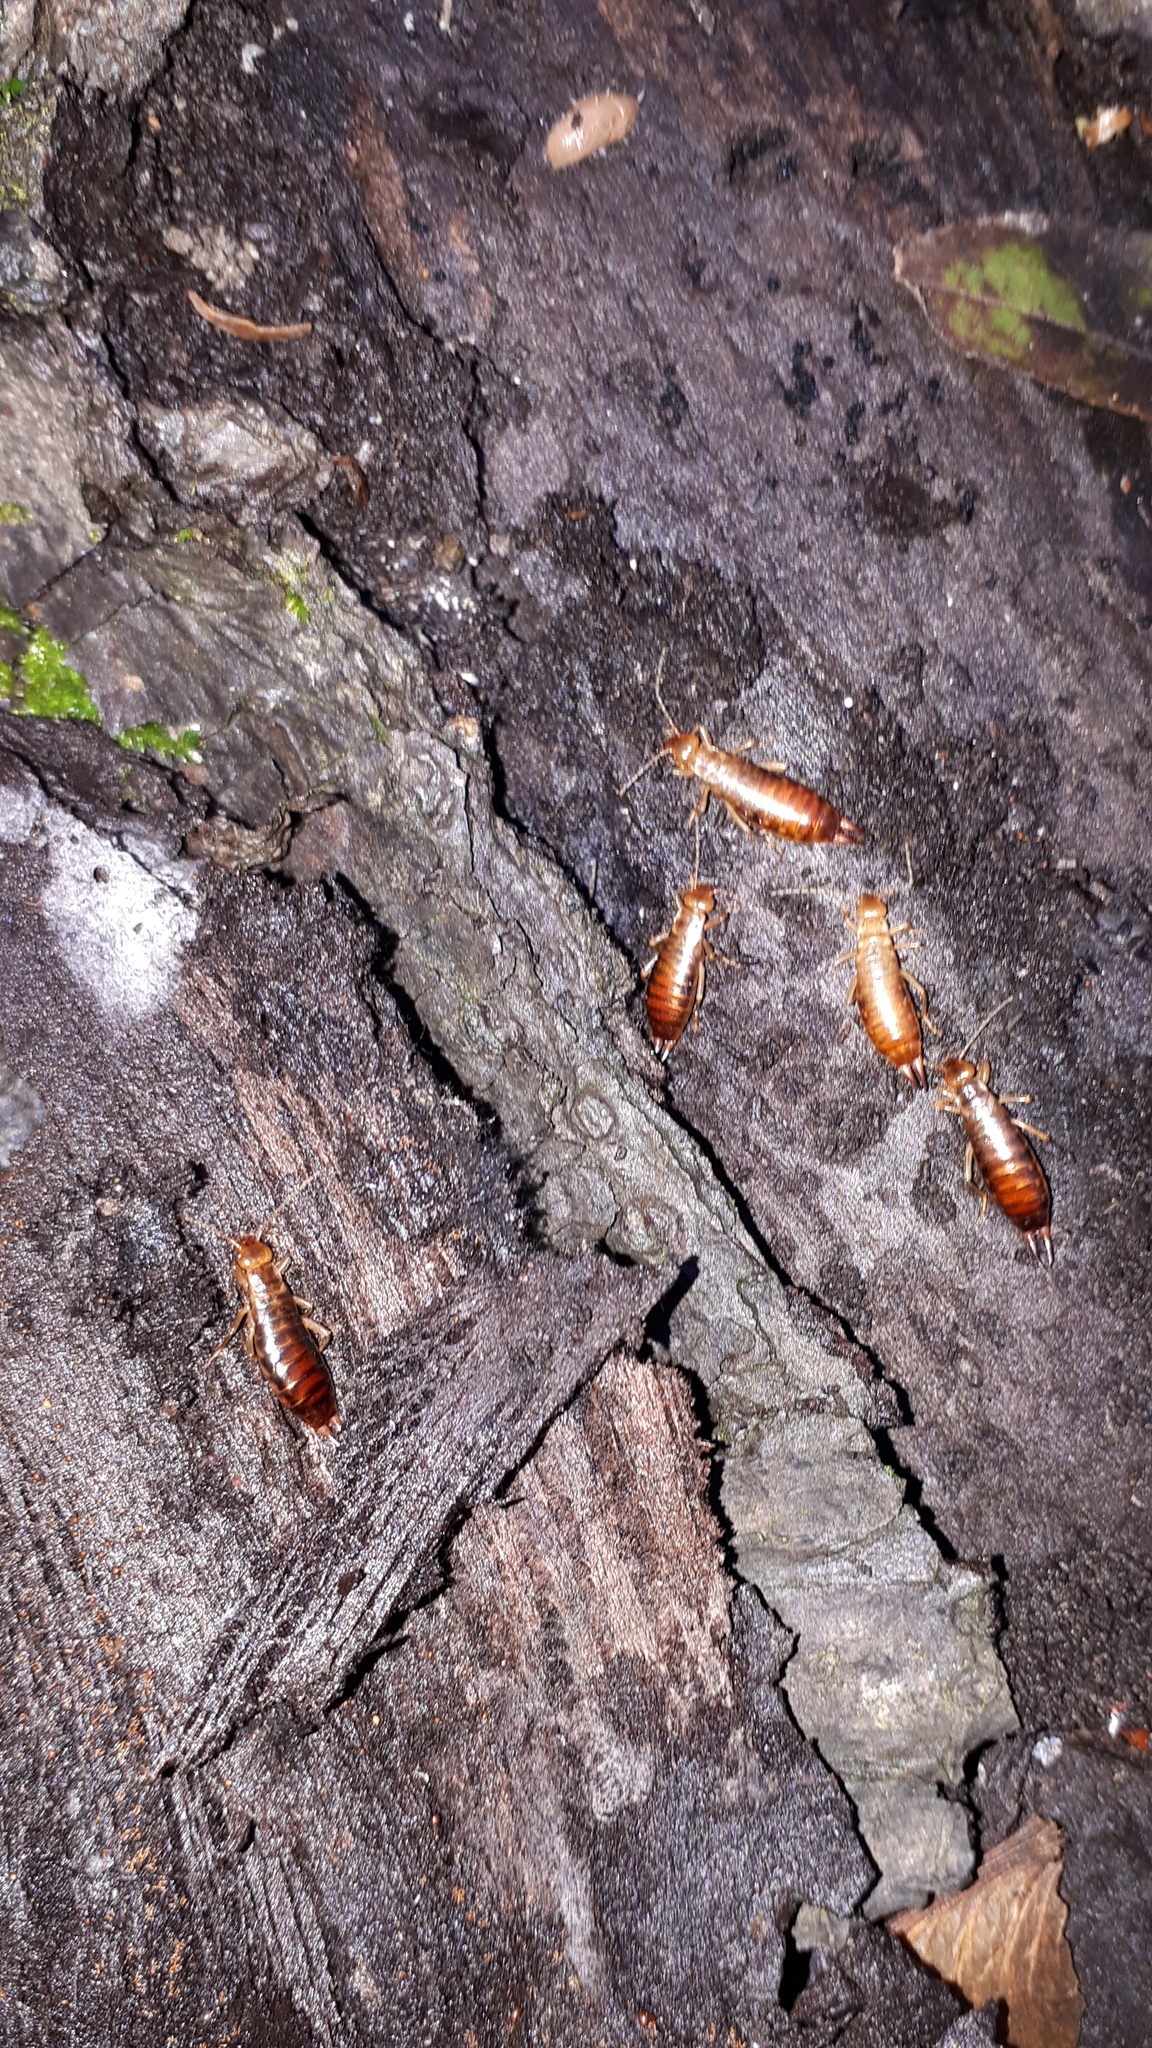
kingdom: Animalia
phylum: Arthropoda
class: Insecta
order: Dermaptera
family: Forficulidae
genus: Chelidurella
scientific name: Chelidurella acanthopygia
